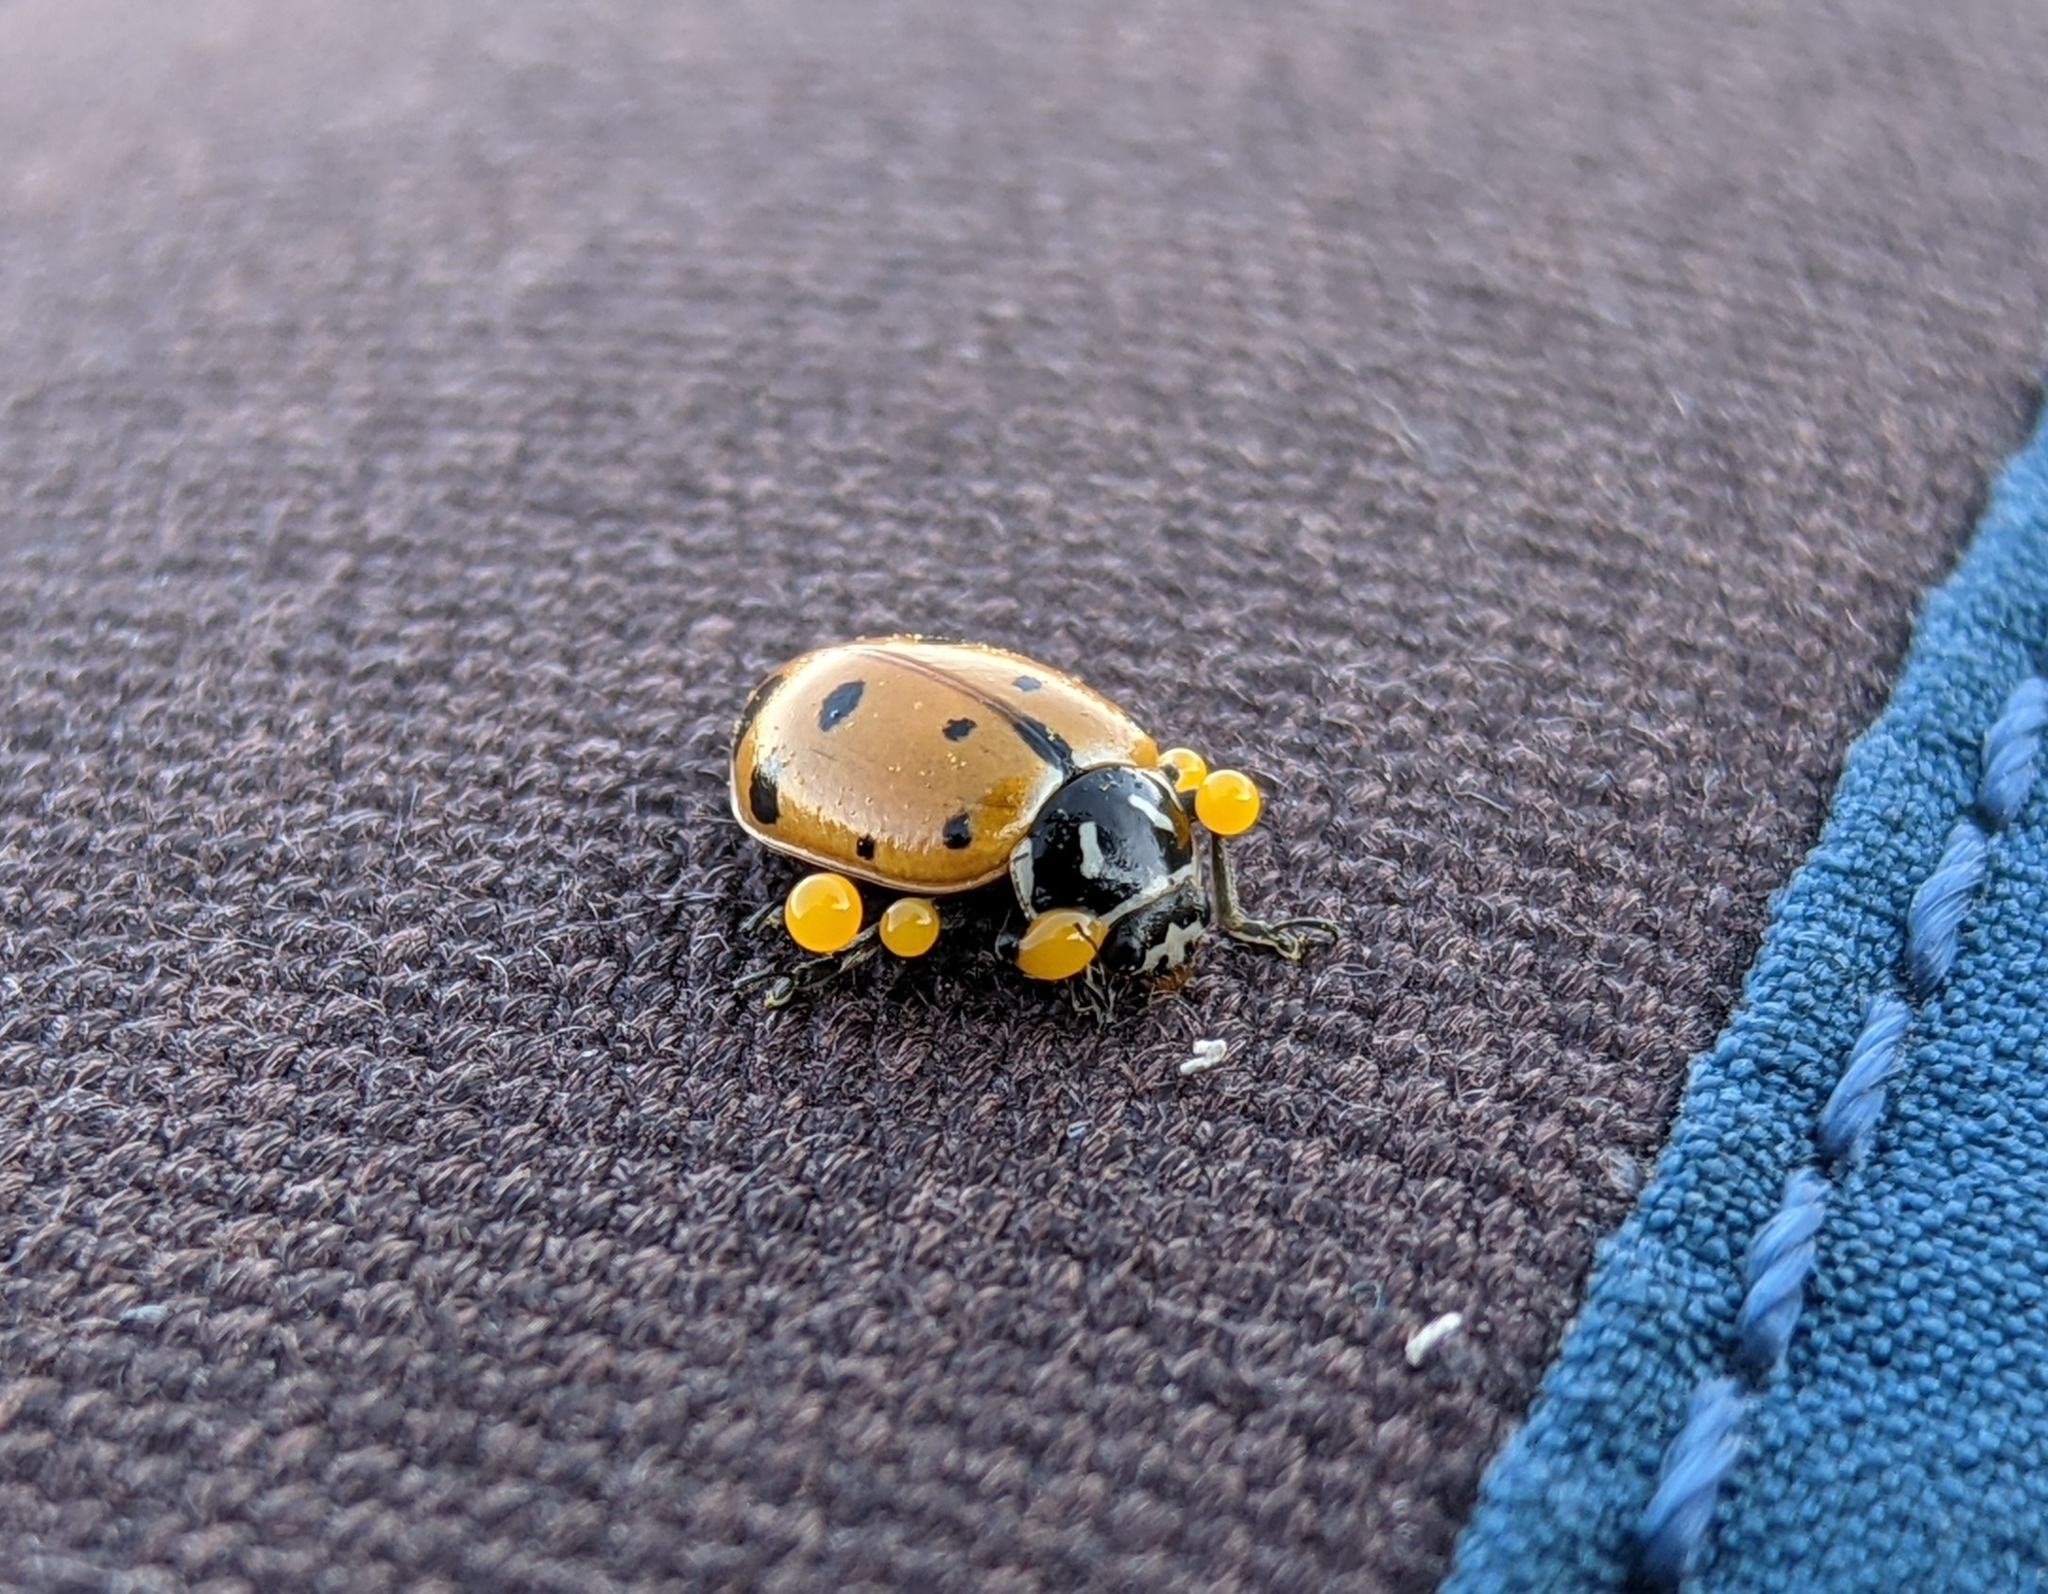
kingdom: Animalia
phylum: Arthropoda
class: Insecta
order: Coleoptera
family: Coccinellidae
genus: Hippodamia
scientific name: Hippodamia convergens
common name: Convergent lady beetle
